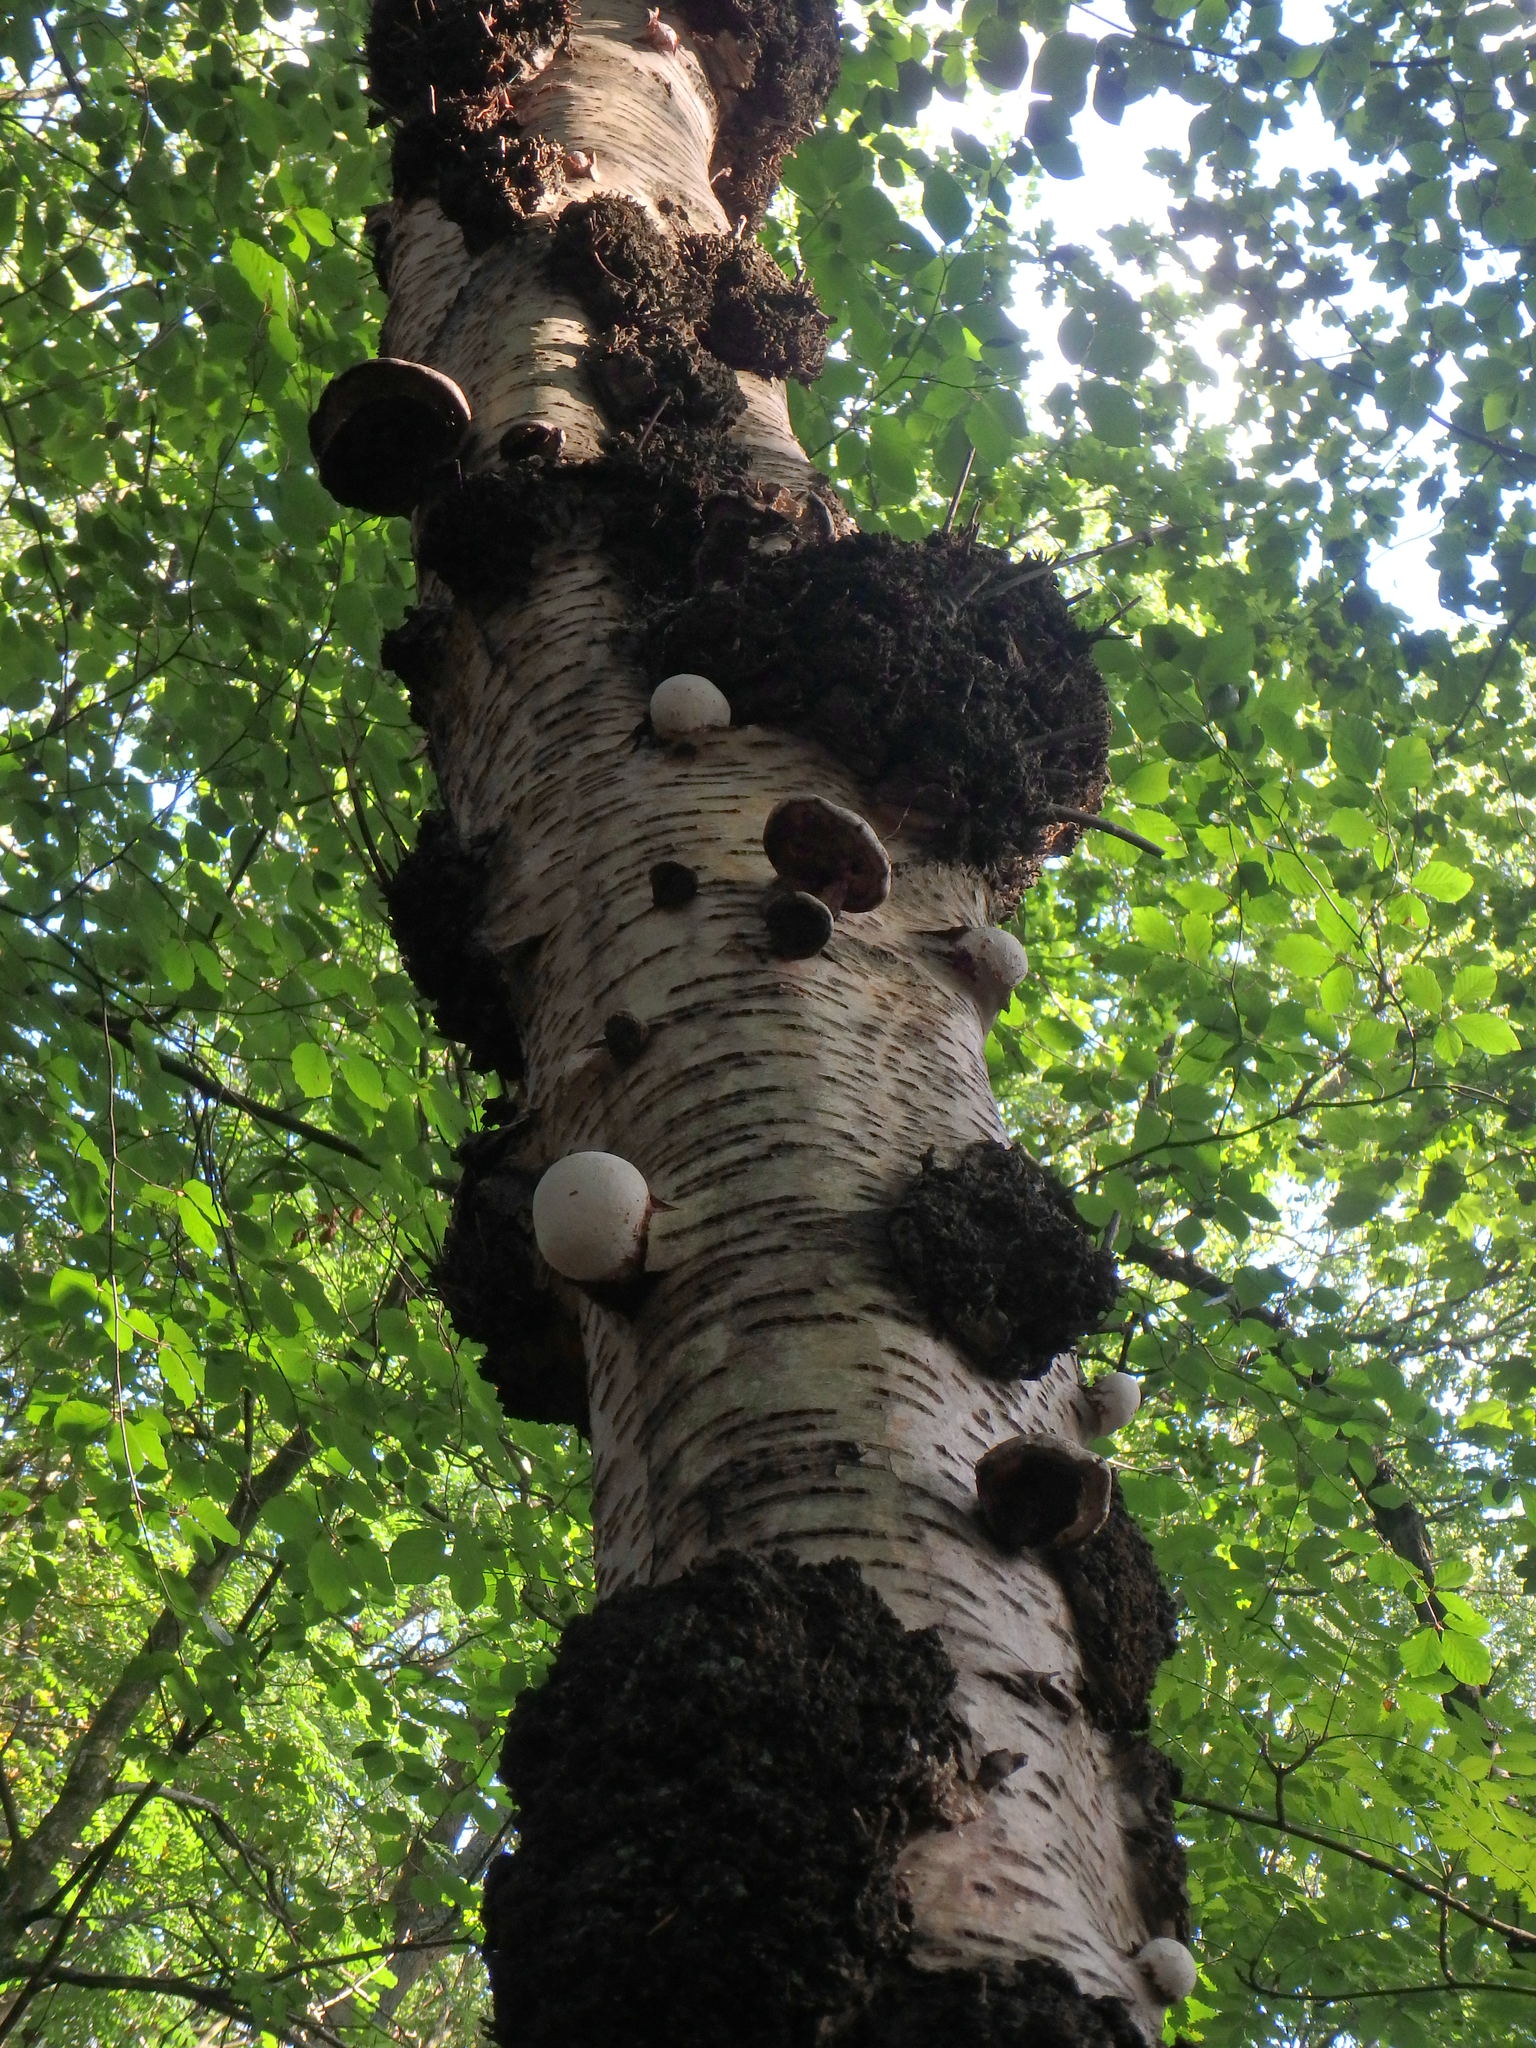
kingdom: Fungi
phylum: Basidiomycota
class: Agaricomycetes
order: Polyporales
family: Fomitopsidaceae
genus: Fomitopsis
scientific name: Fomitopsis betulina
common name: Birch polypore
